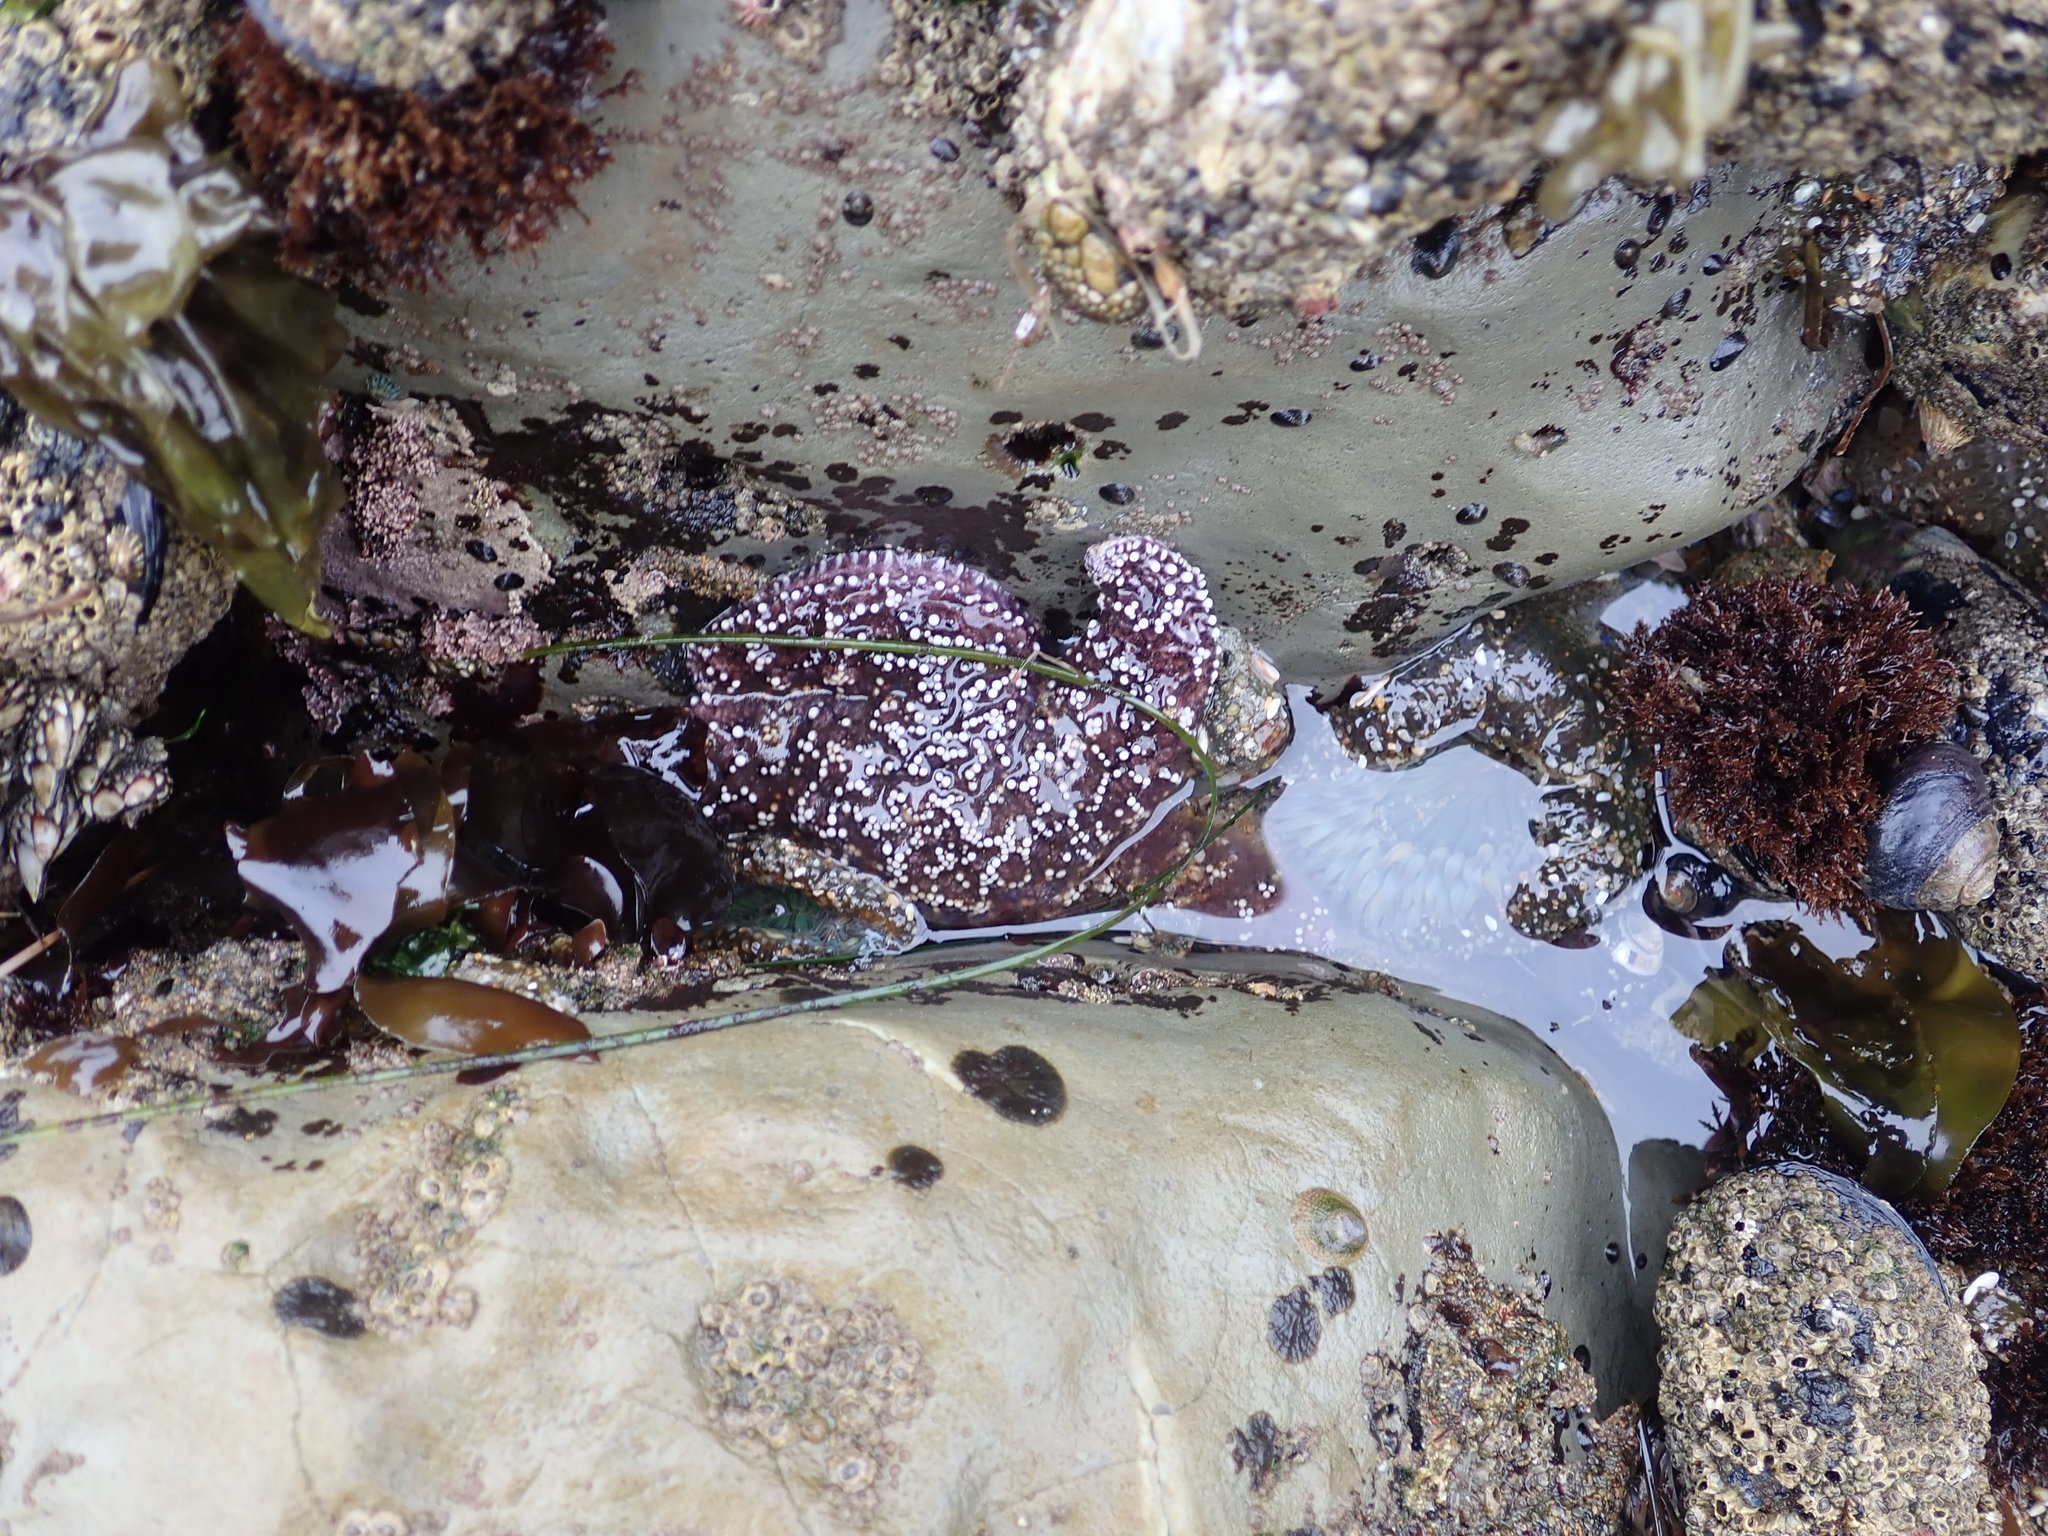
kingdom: Animalia
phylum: Echinodermata
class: Asteroidea
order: Forcipulatida
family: Asteriidae
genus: Pisaster
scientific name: Pisaster ochraceus
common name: Ochre stars
